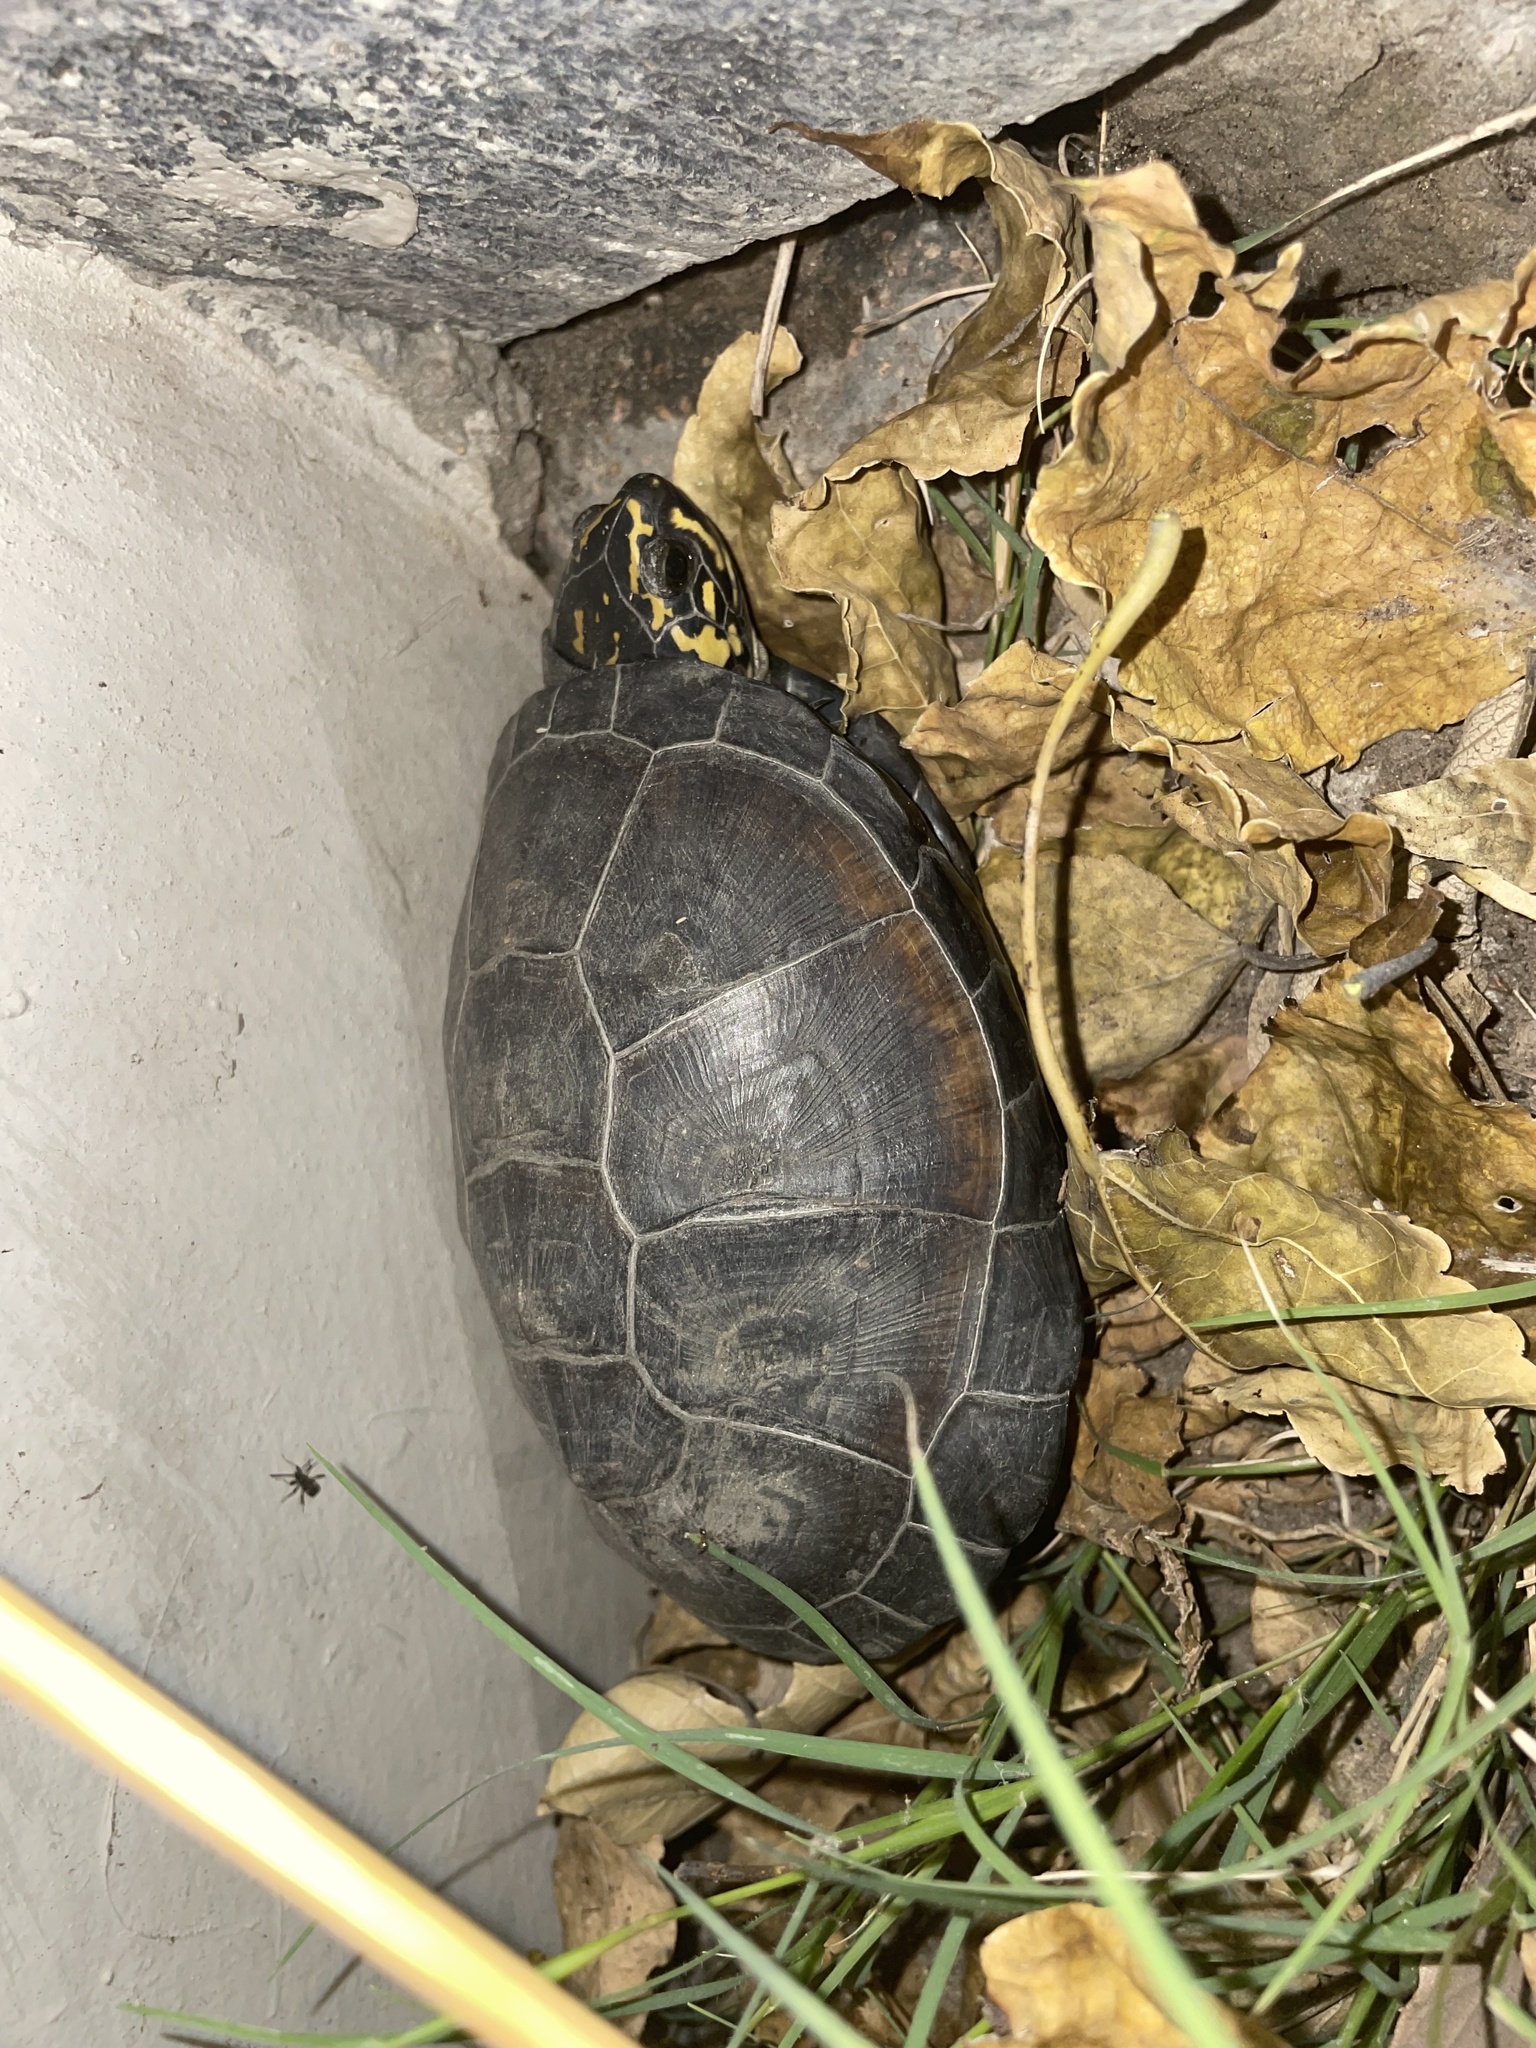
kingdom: Animalia
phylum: Chordata
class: Testudines
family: Pelomedusidae
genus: Pelusios
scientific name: Pelusios bechuanicus
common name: Okavango mud turtle
